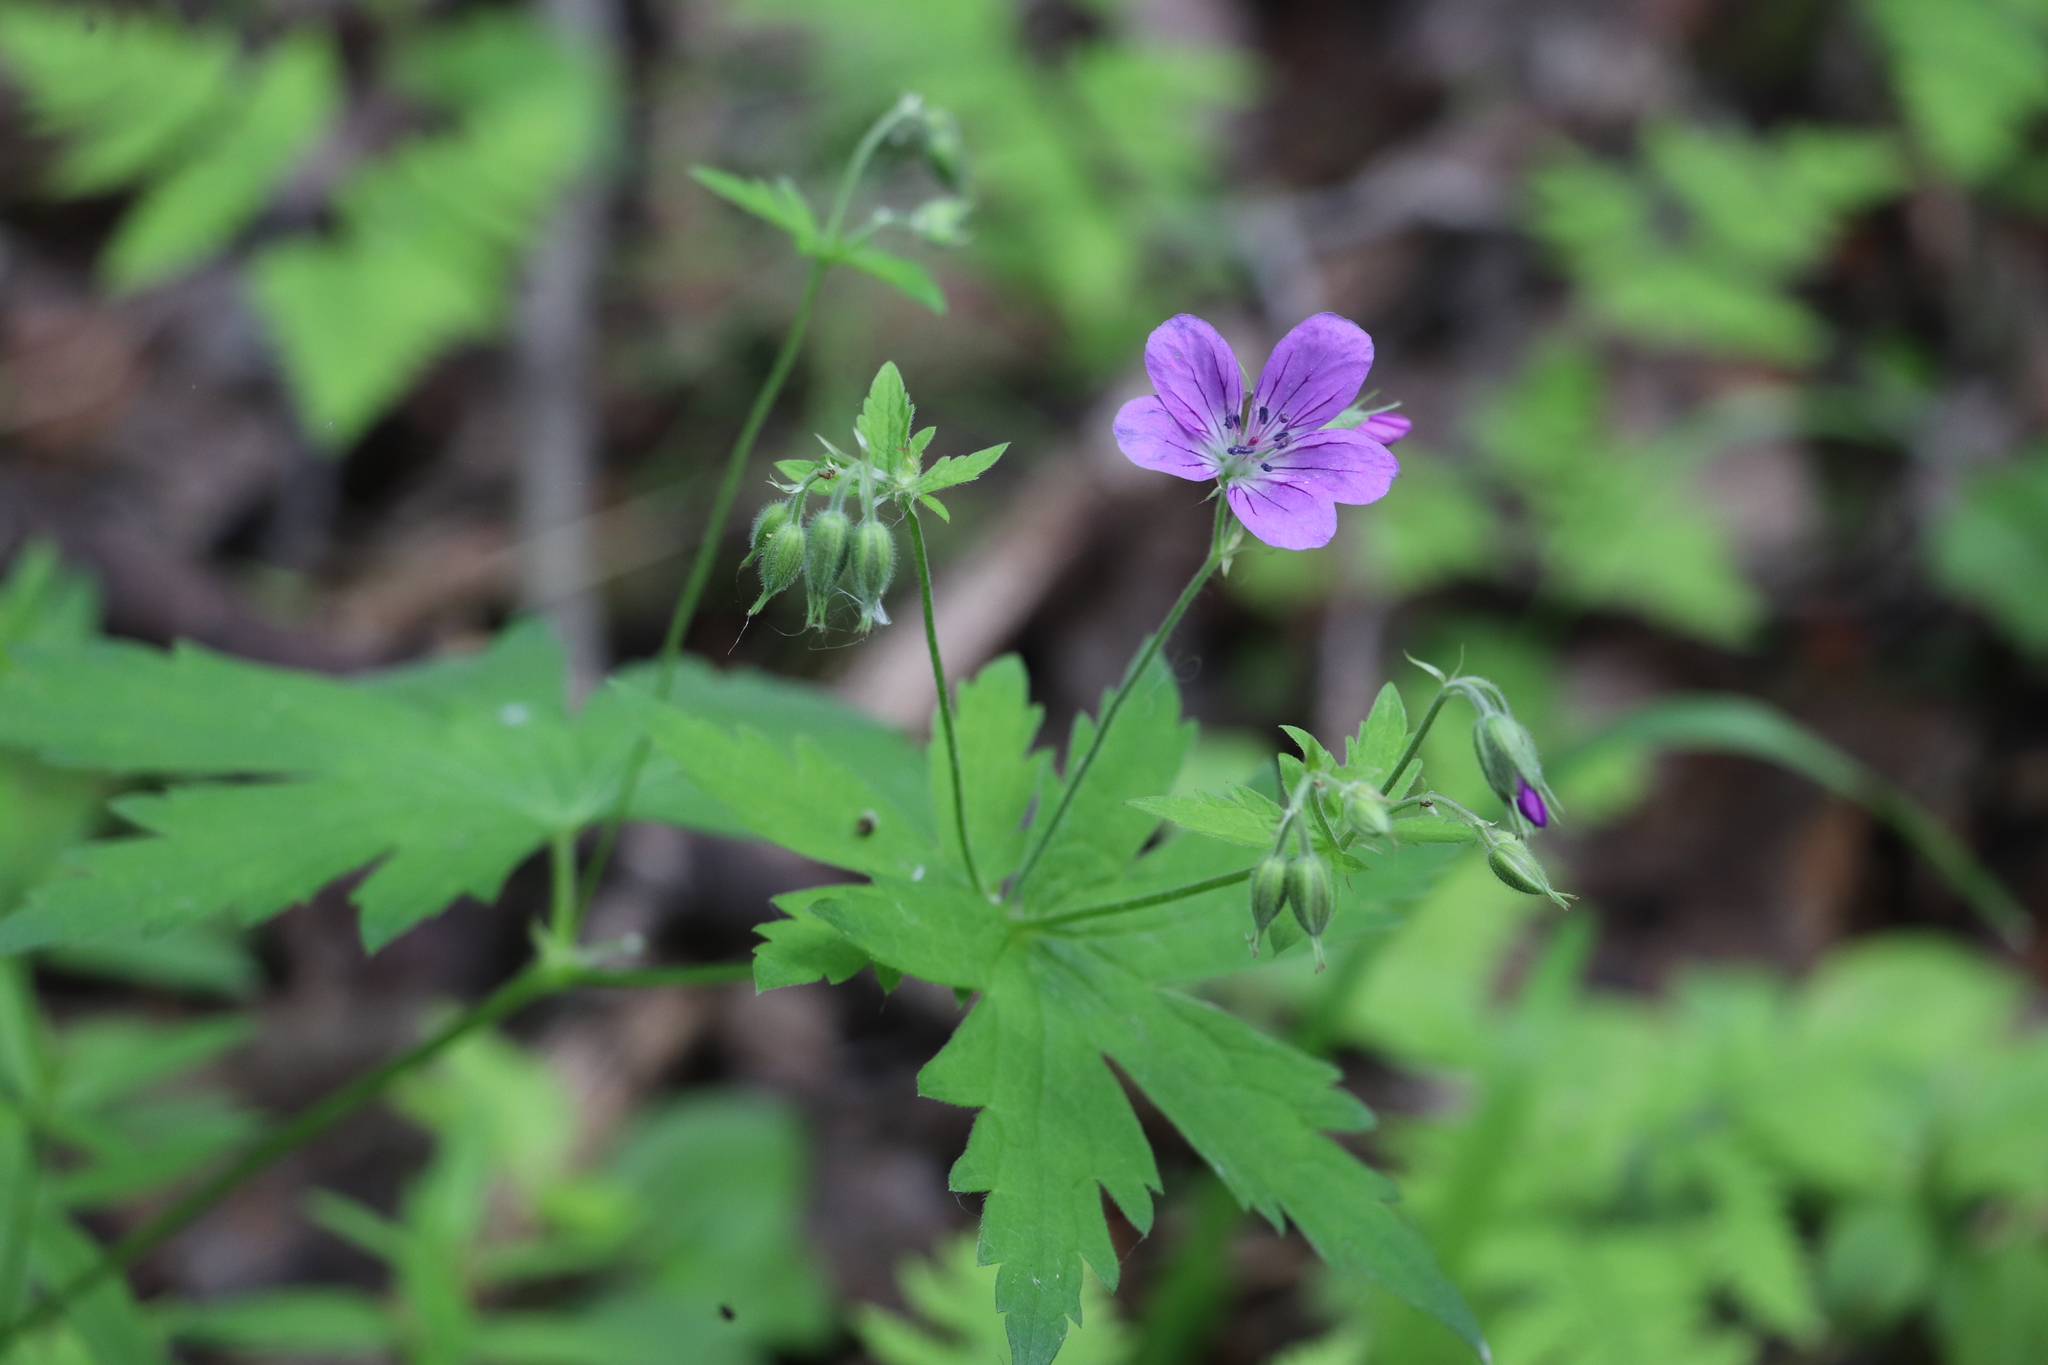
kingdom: Plantae
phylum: Tracheophyta
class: Magnoliopsida
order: Geraniales
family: Geraniaceae
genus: Geranium
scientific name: Geranium sylvaticum
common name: Wood crane's-bill
